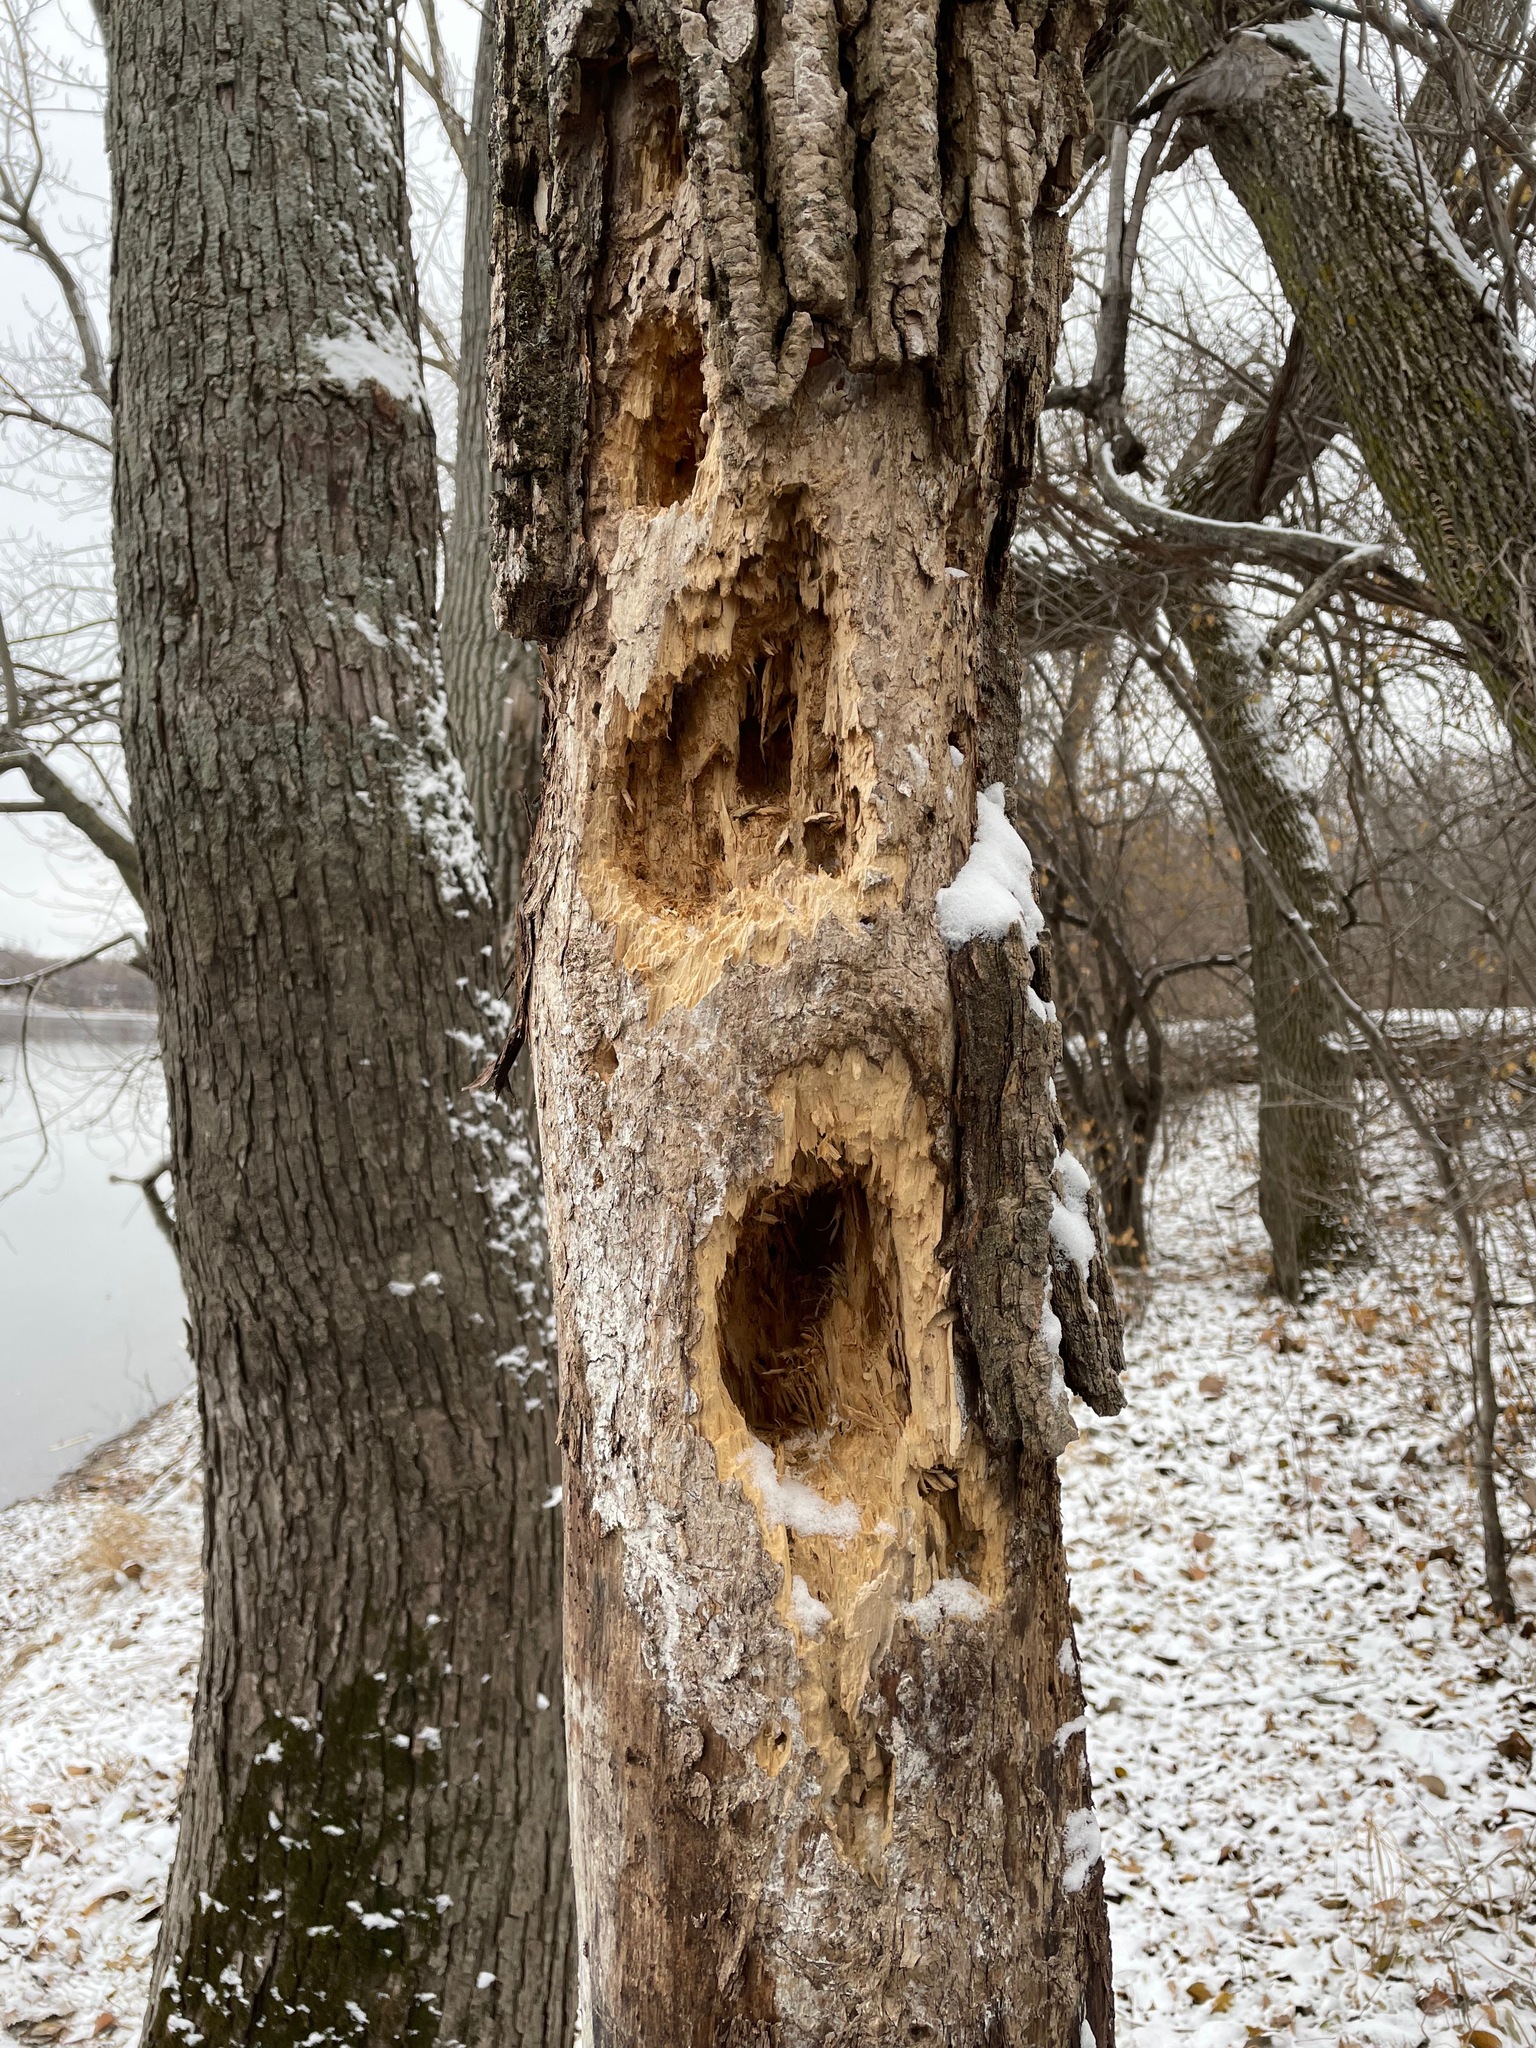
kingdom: Animalia
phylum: Chordata
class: Aves
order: Piciformes
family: Picidae
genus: Dryocopus
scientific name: Dryocopus pileatus
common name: Pileated woodpecker
